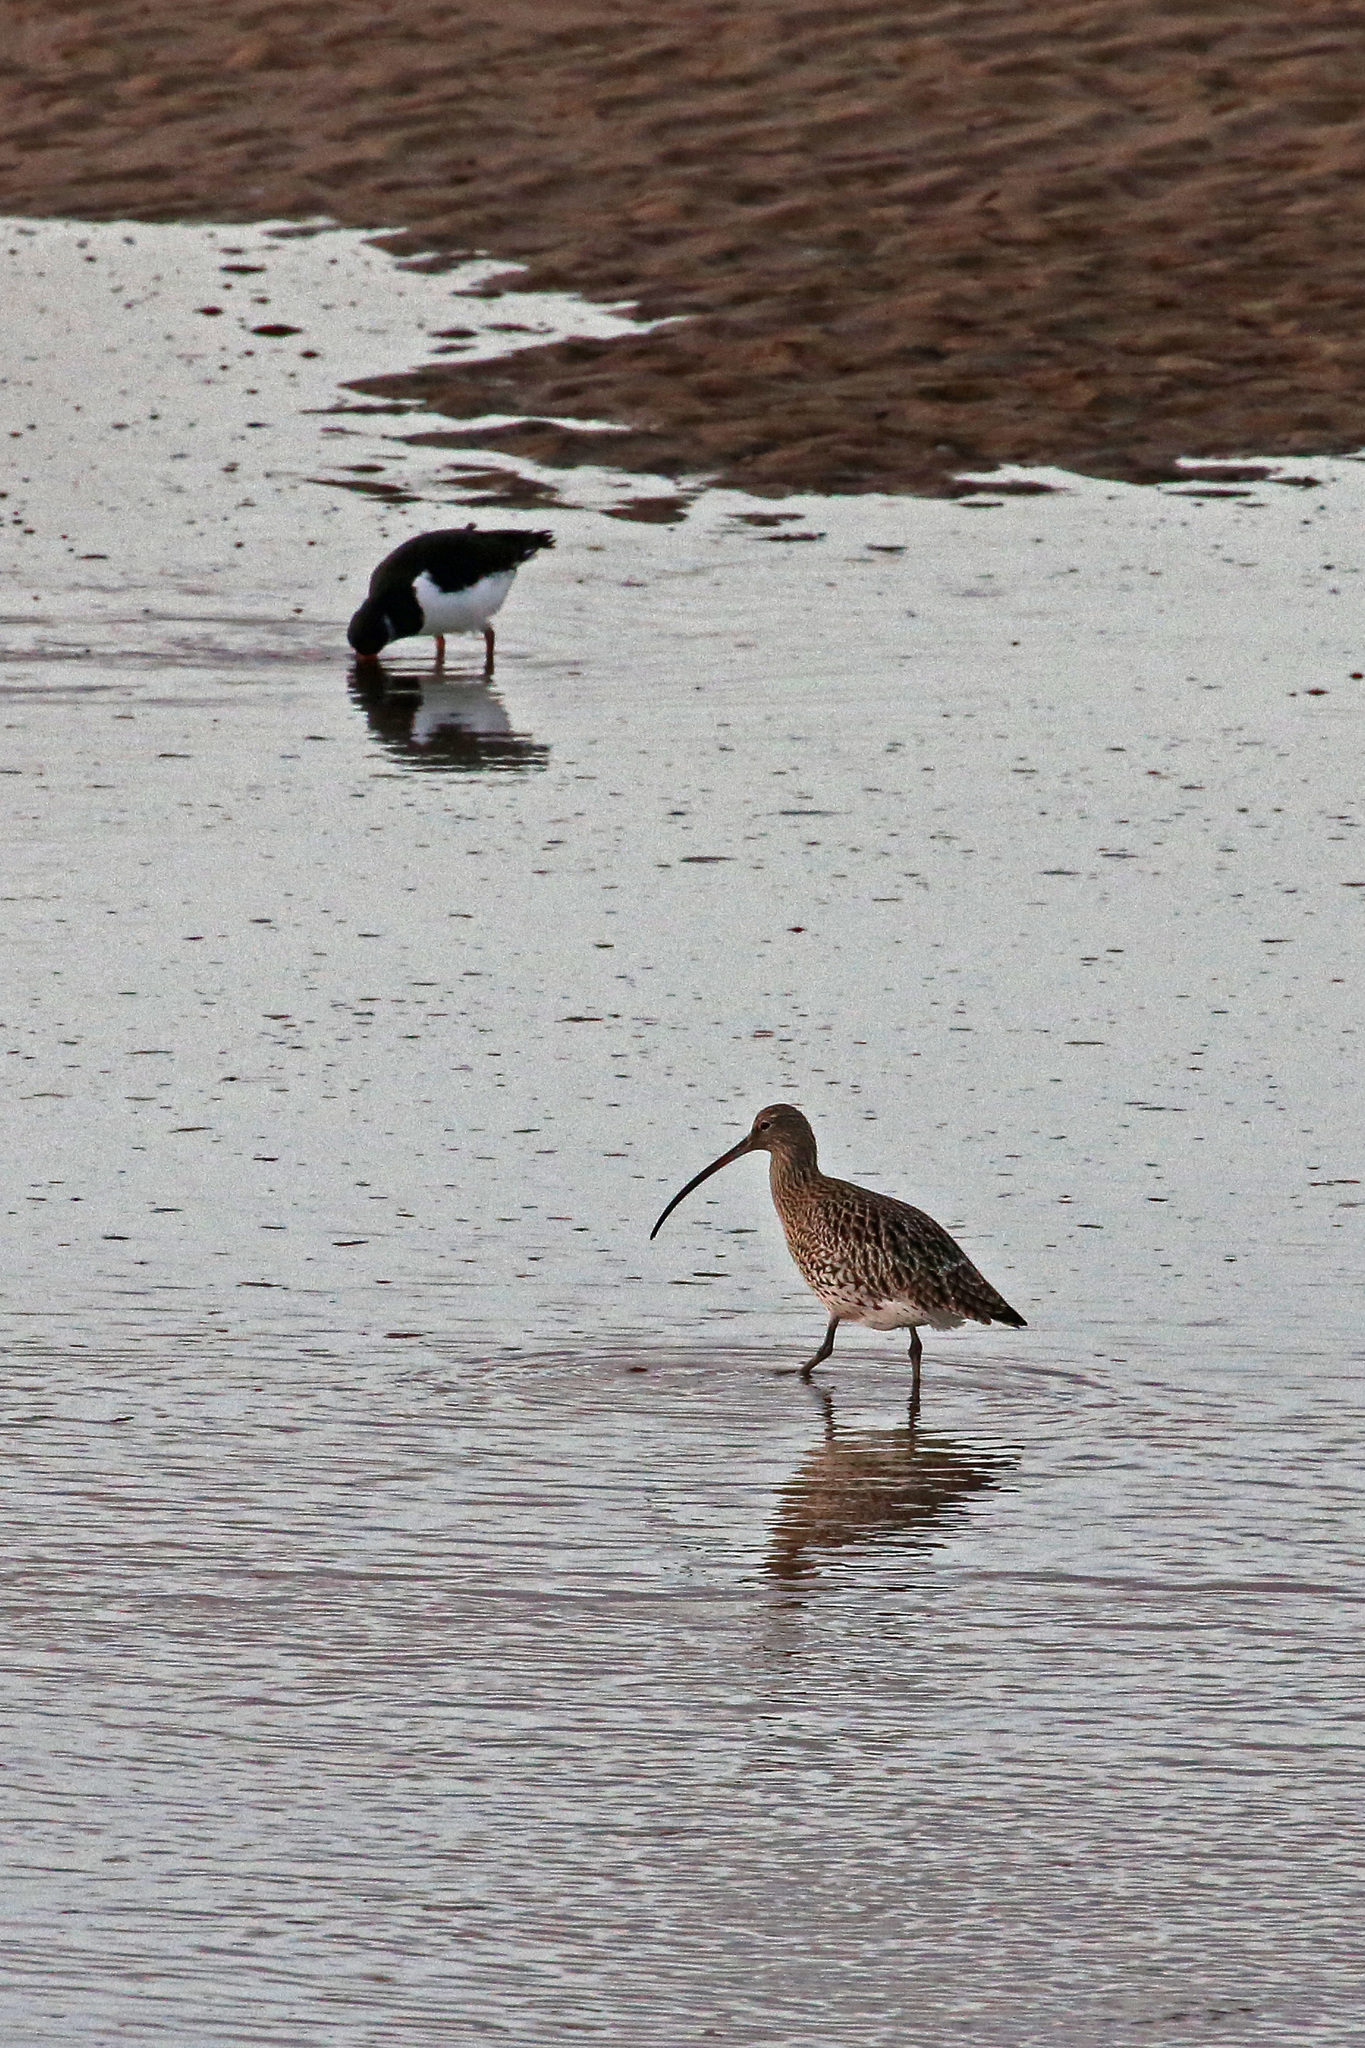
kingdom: Animalia
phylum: Chordata
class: Aves
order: Charadriiformes
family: Scolopacidae
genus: Numenius
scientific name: Numenius arquata
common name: Eurasian curlew
